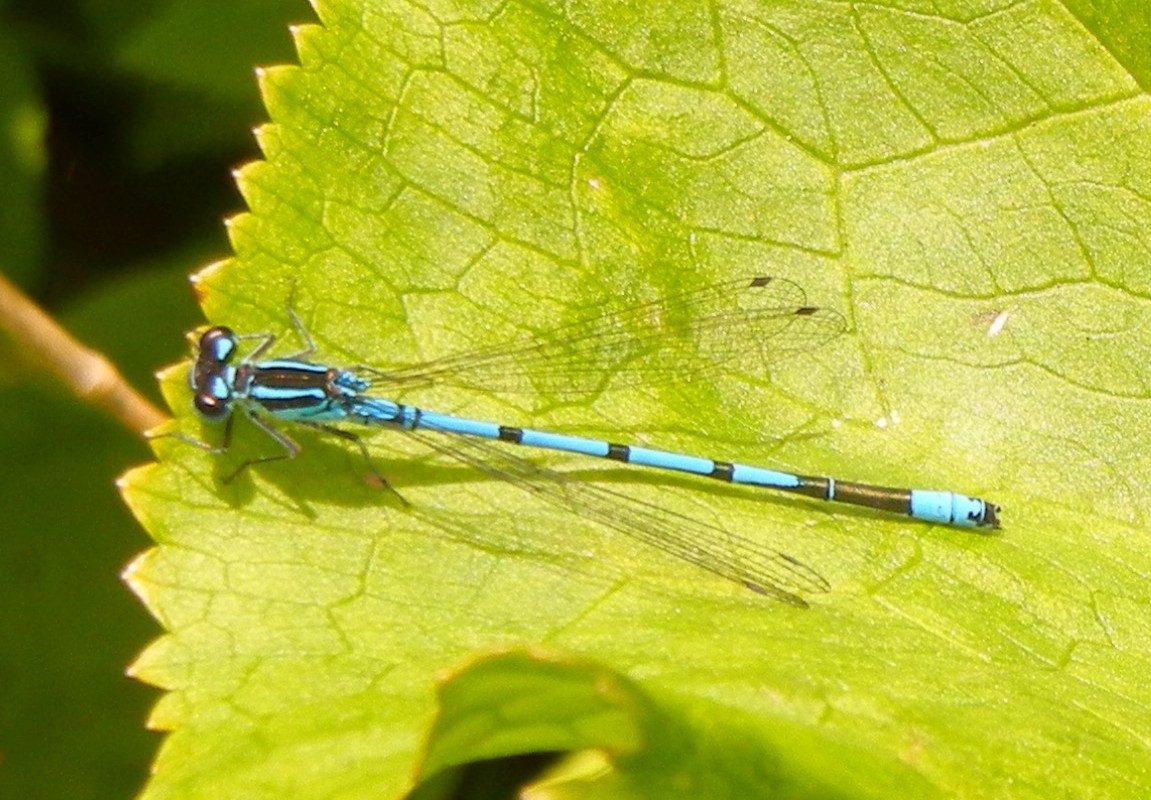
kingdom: Animalia
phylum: Arthropoda
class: Insecta
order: Odonata
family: Coenagrionidae
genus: Coenagrion
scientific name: Coenagrion puella
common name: Azure damselfly
